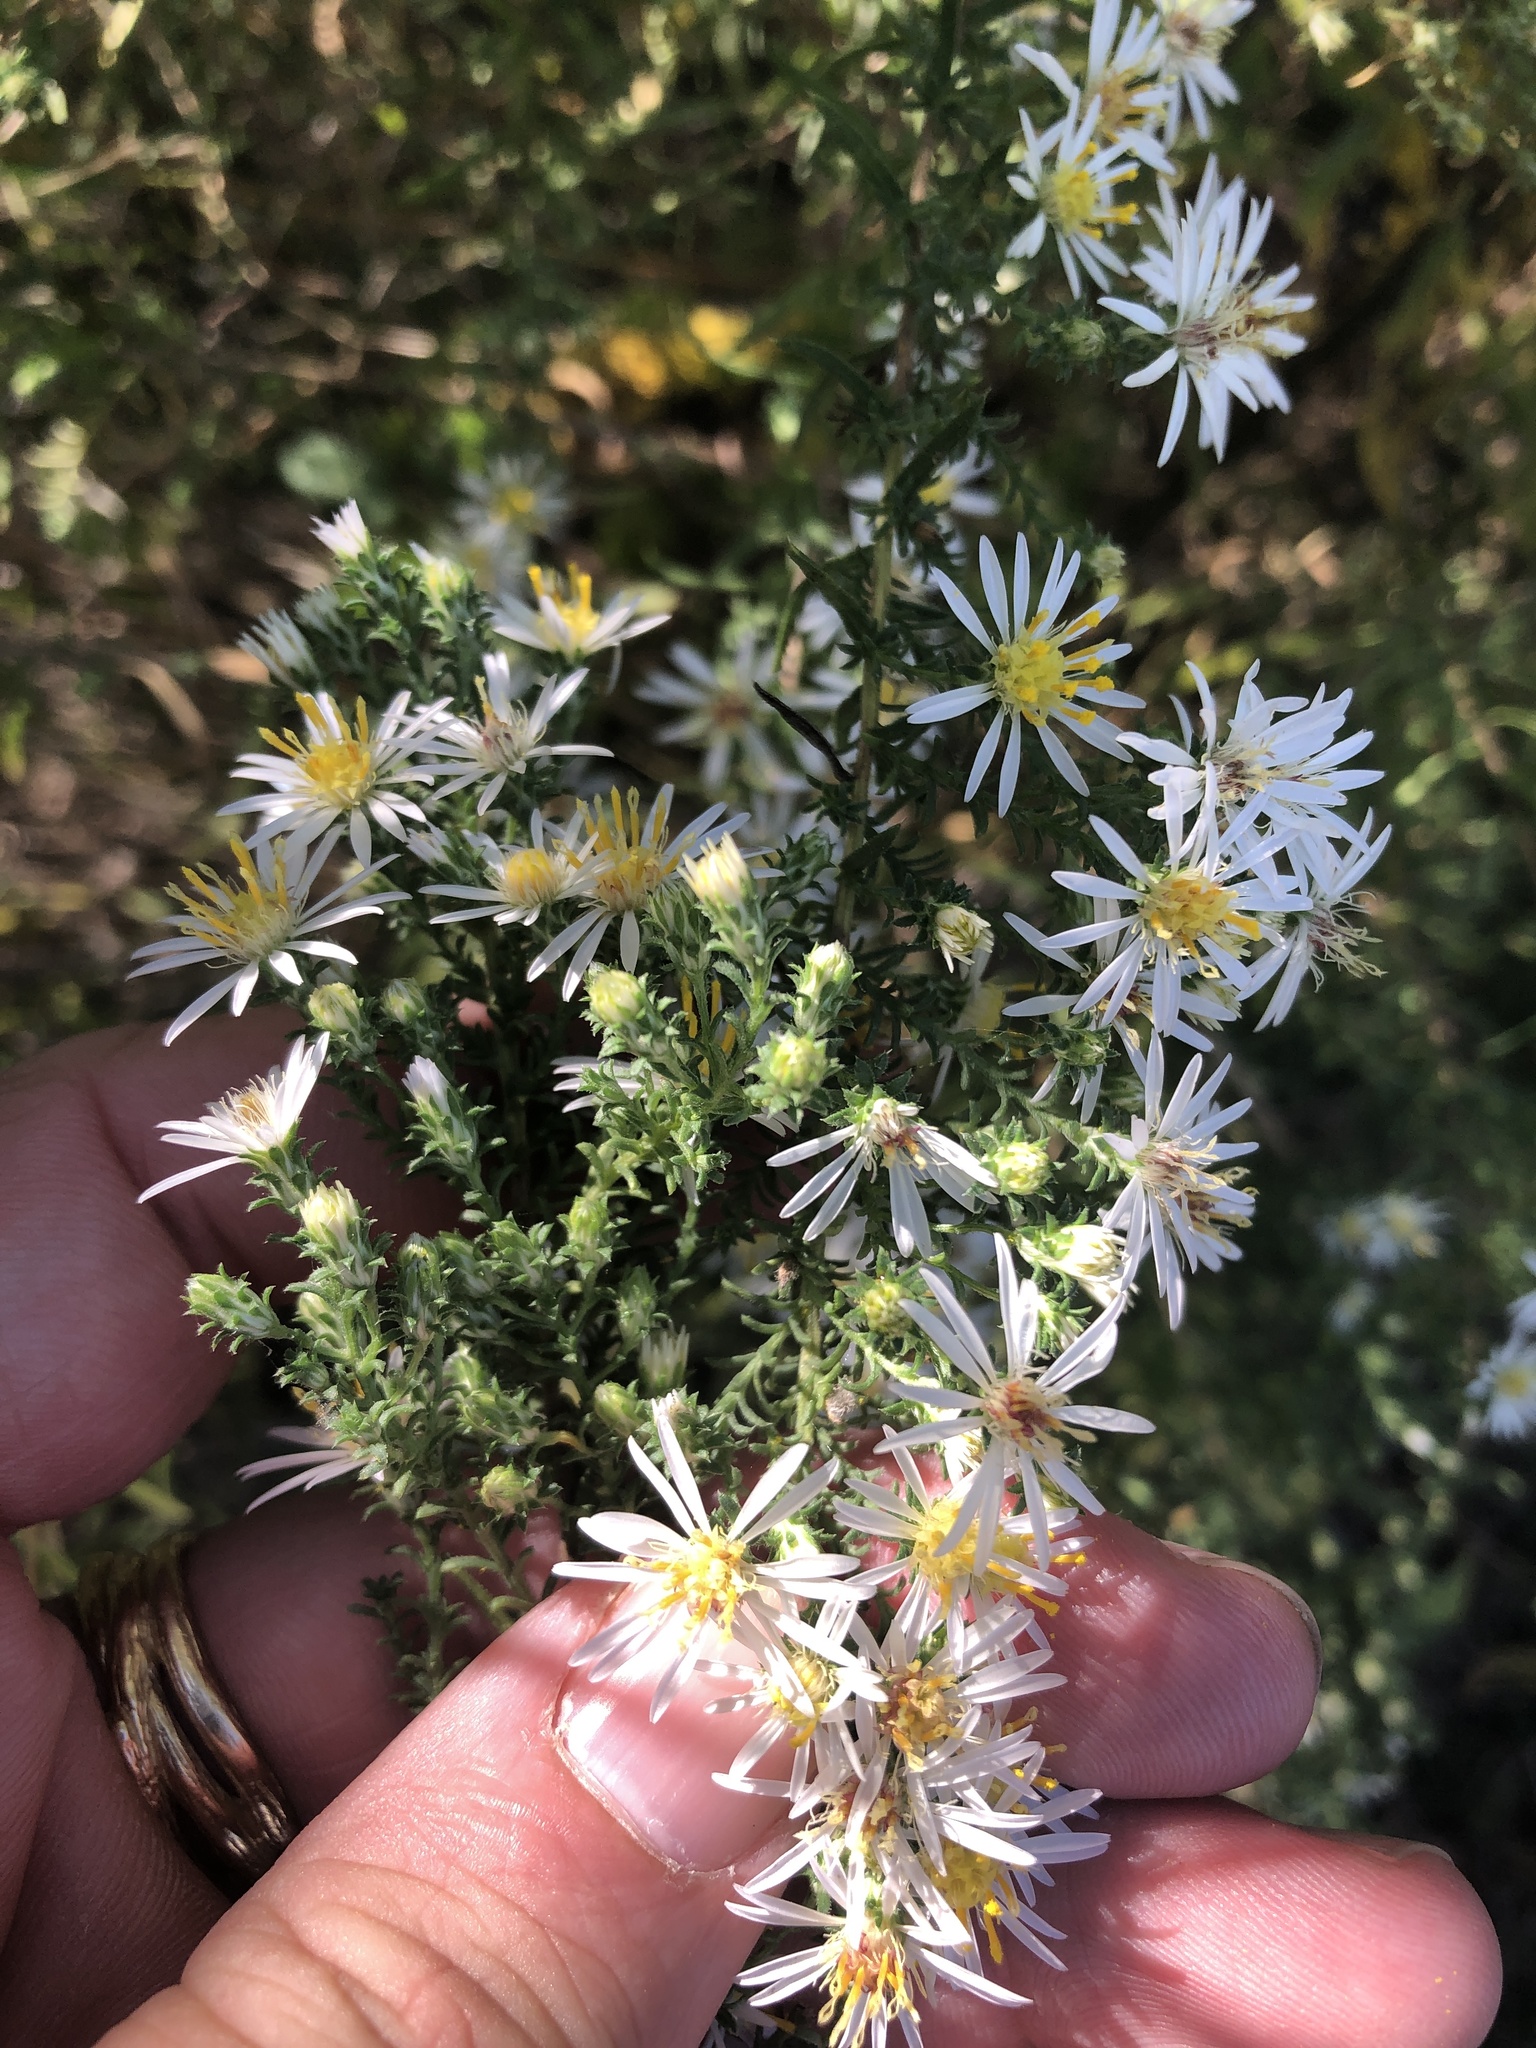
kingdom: Plantae
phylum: Tracheophyta
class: Magnoliopsida
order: Asterales
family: Asteraceae
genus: Symphyotrichum
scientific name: Symphyotrichum ericoides
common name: Heath aster
